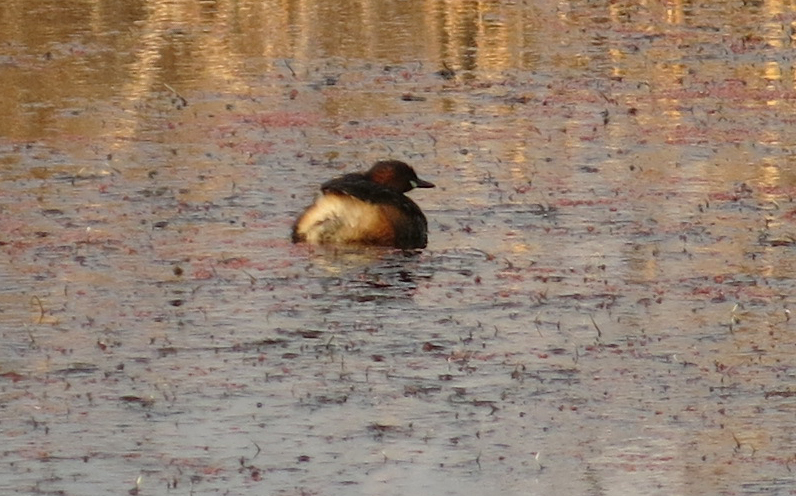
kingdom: Animalia
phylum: Chordata
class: Aves
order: Podicipediformes
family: Podicipedidae
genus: Tachybaptus
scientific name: Tachybaptus ruficollis
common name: Little grebe
